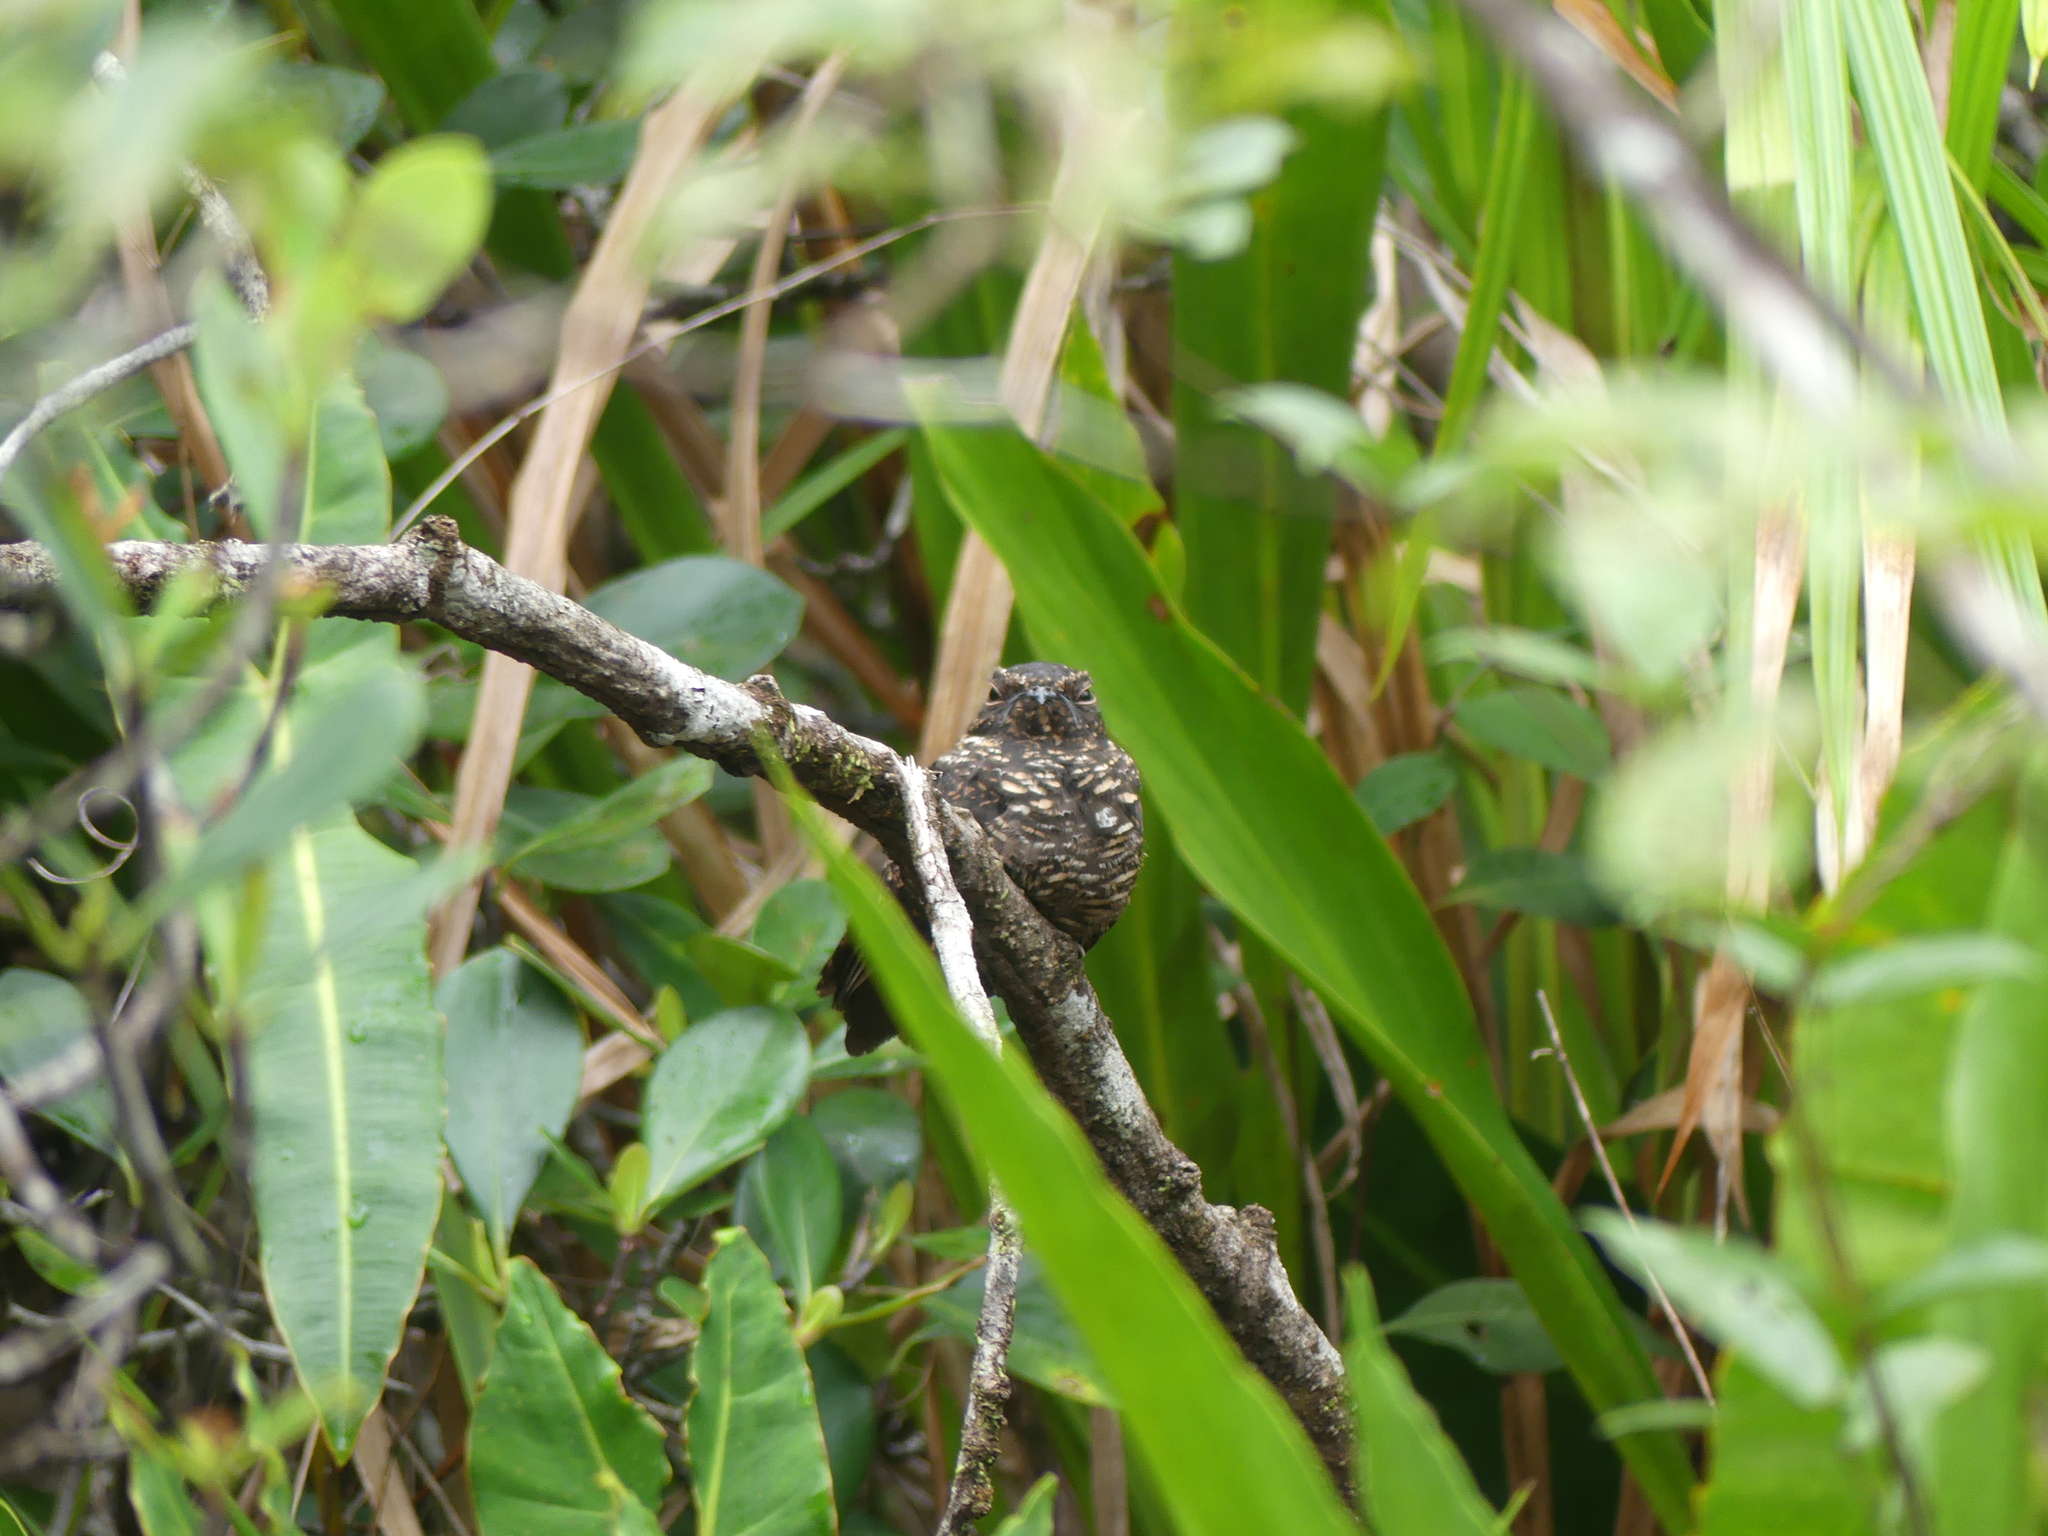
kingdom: Animalia
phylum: Chordata
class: Aves
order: Caprimulgiformes
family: Caprimulgidae
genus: Nyctipolus
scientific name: Nyctipolus nigrescens
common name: Blackish nightjar
